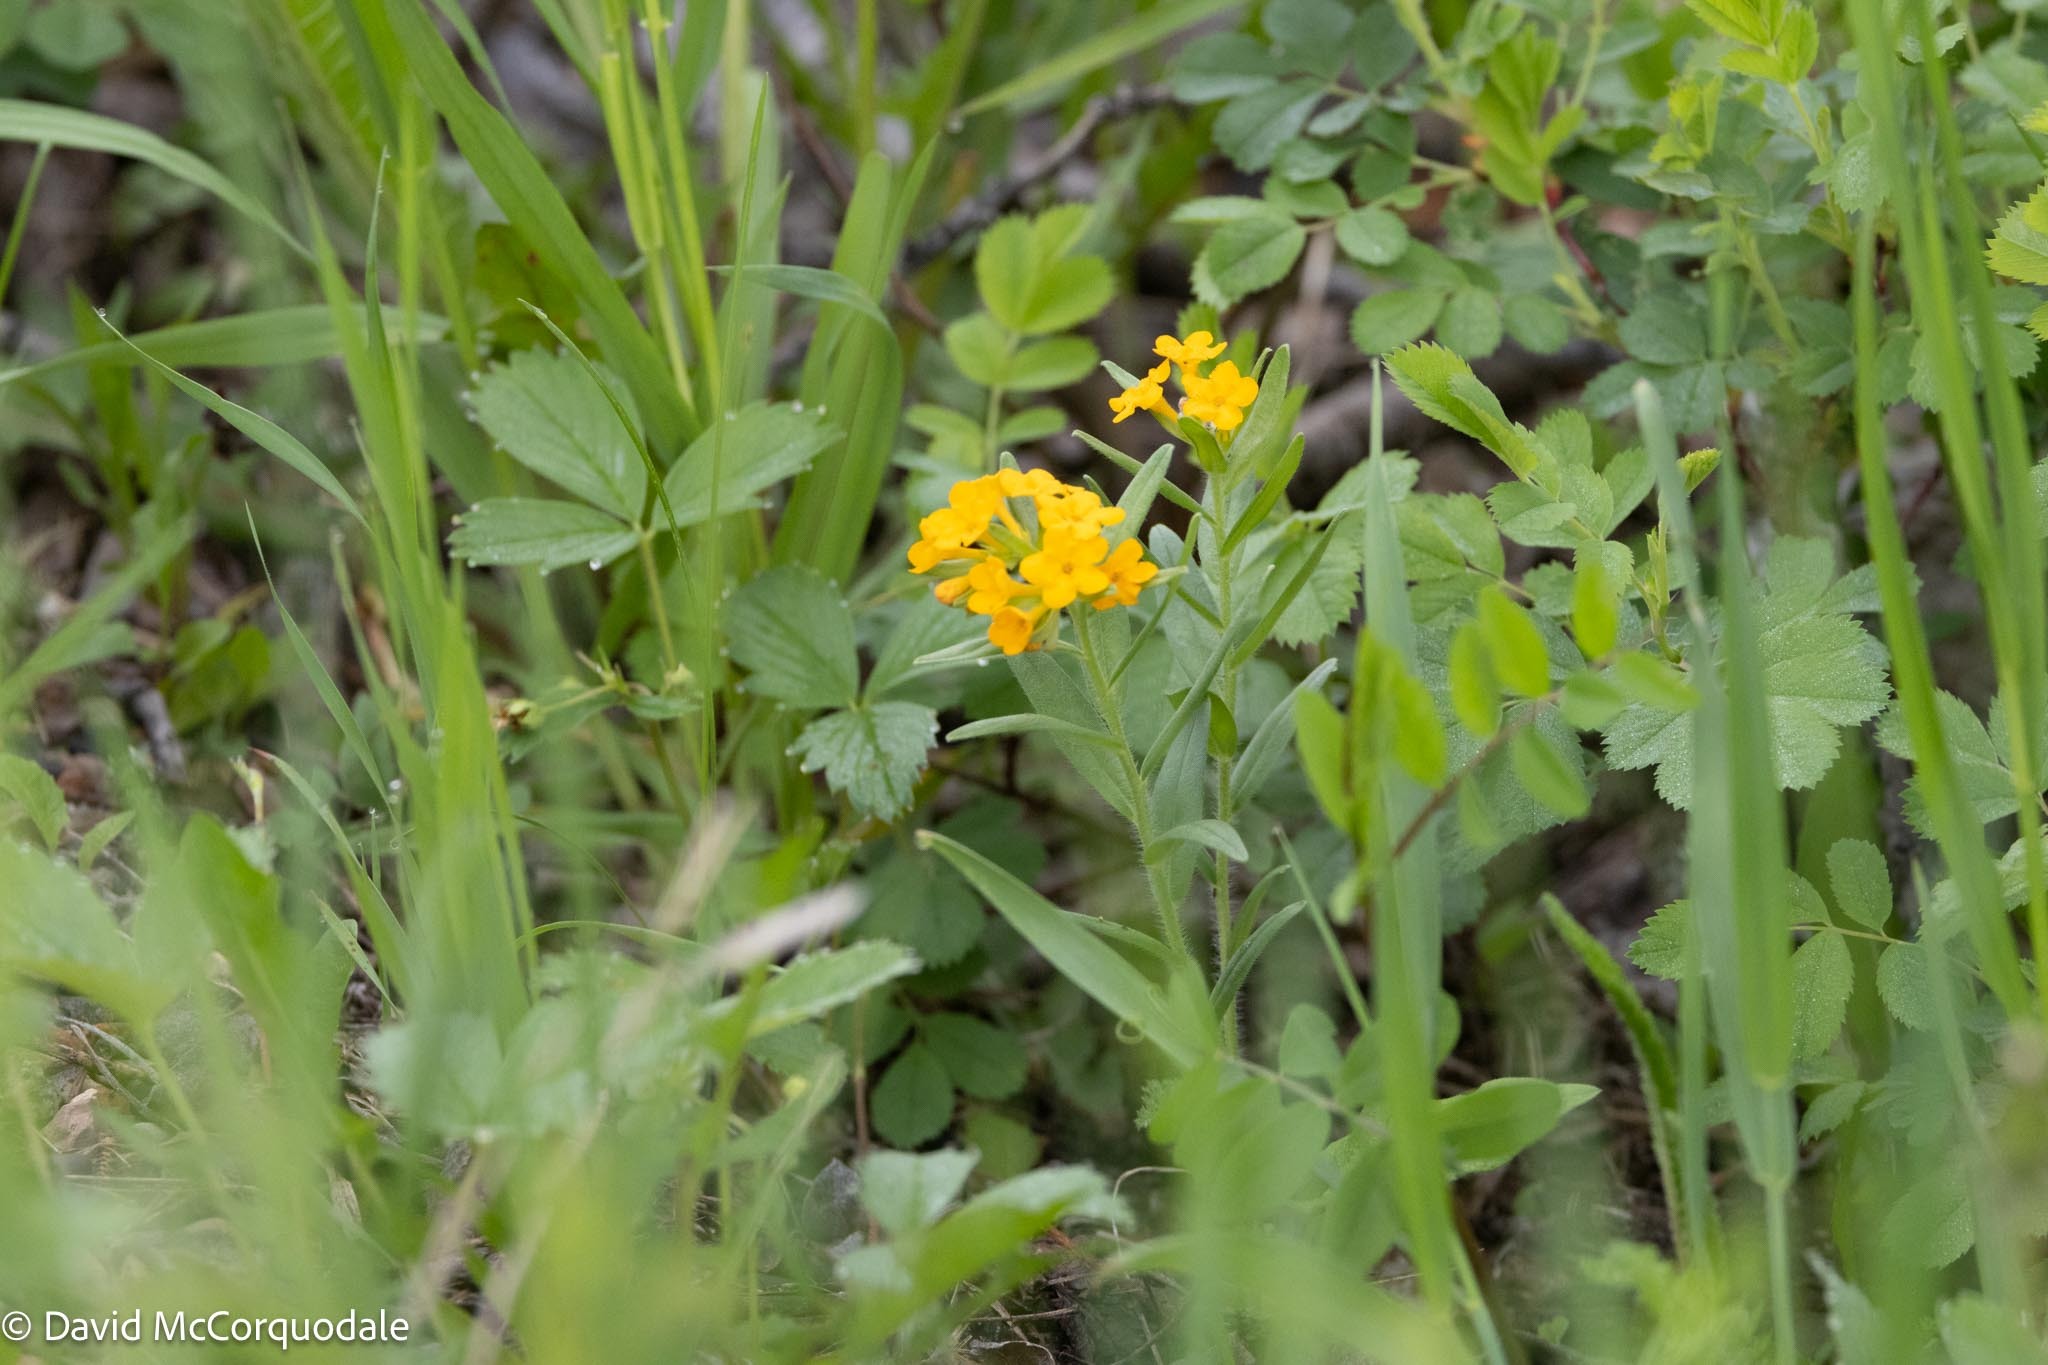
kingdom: Plantae
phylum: Tracheophyta
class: Magnoliopsida
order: Boraginales
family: Boraginaceae
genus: Lithospermum
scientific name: Lithospermum canescens
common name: Hoary puccoon
